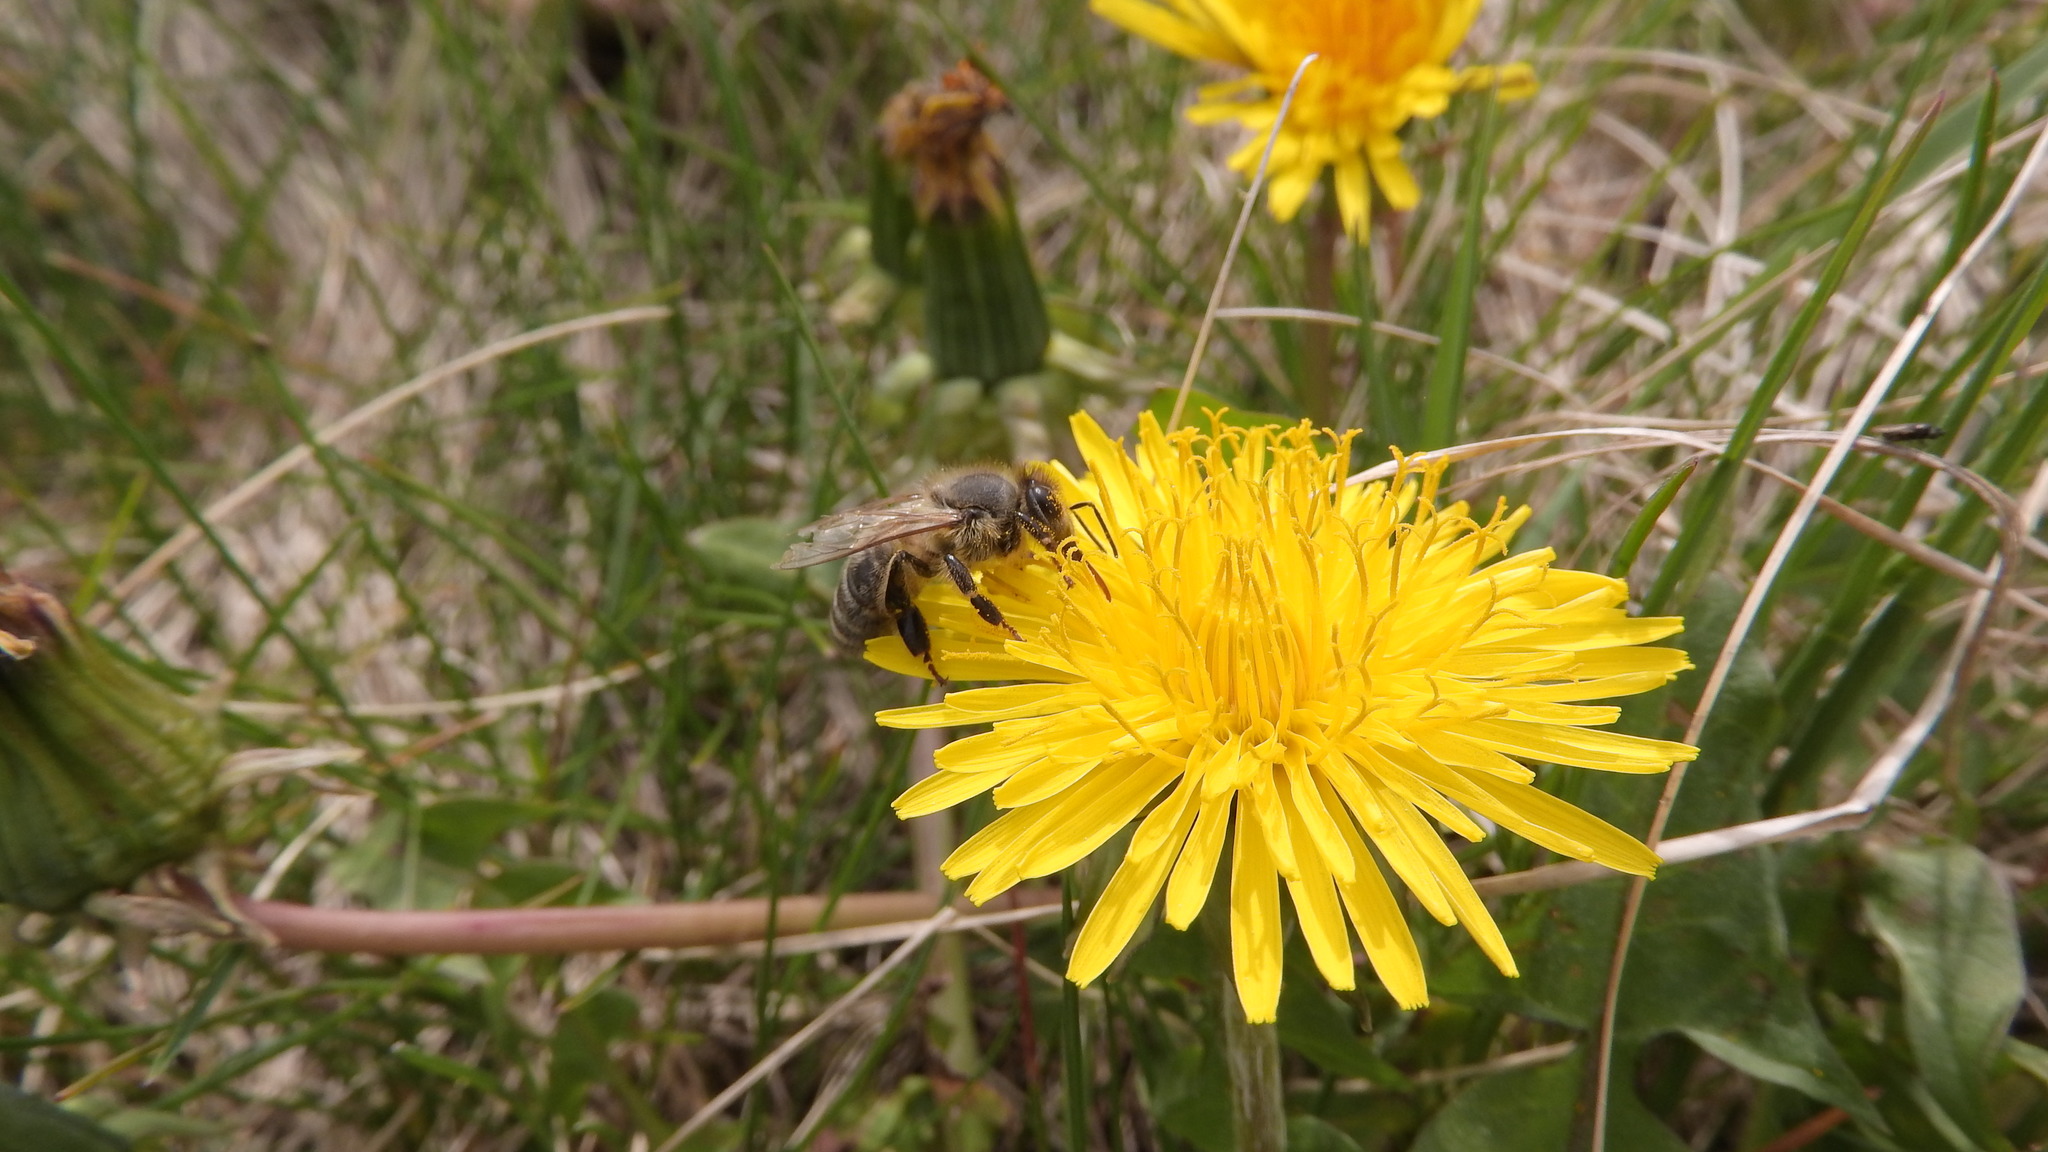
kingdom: Animalia
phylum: Arthropoda
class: Insecta
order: Hymenoptera
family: Apidae
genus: Apis
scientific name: Apis mellifera
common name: Honey bee
